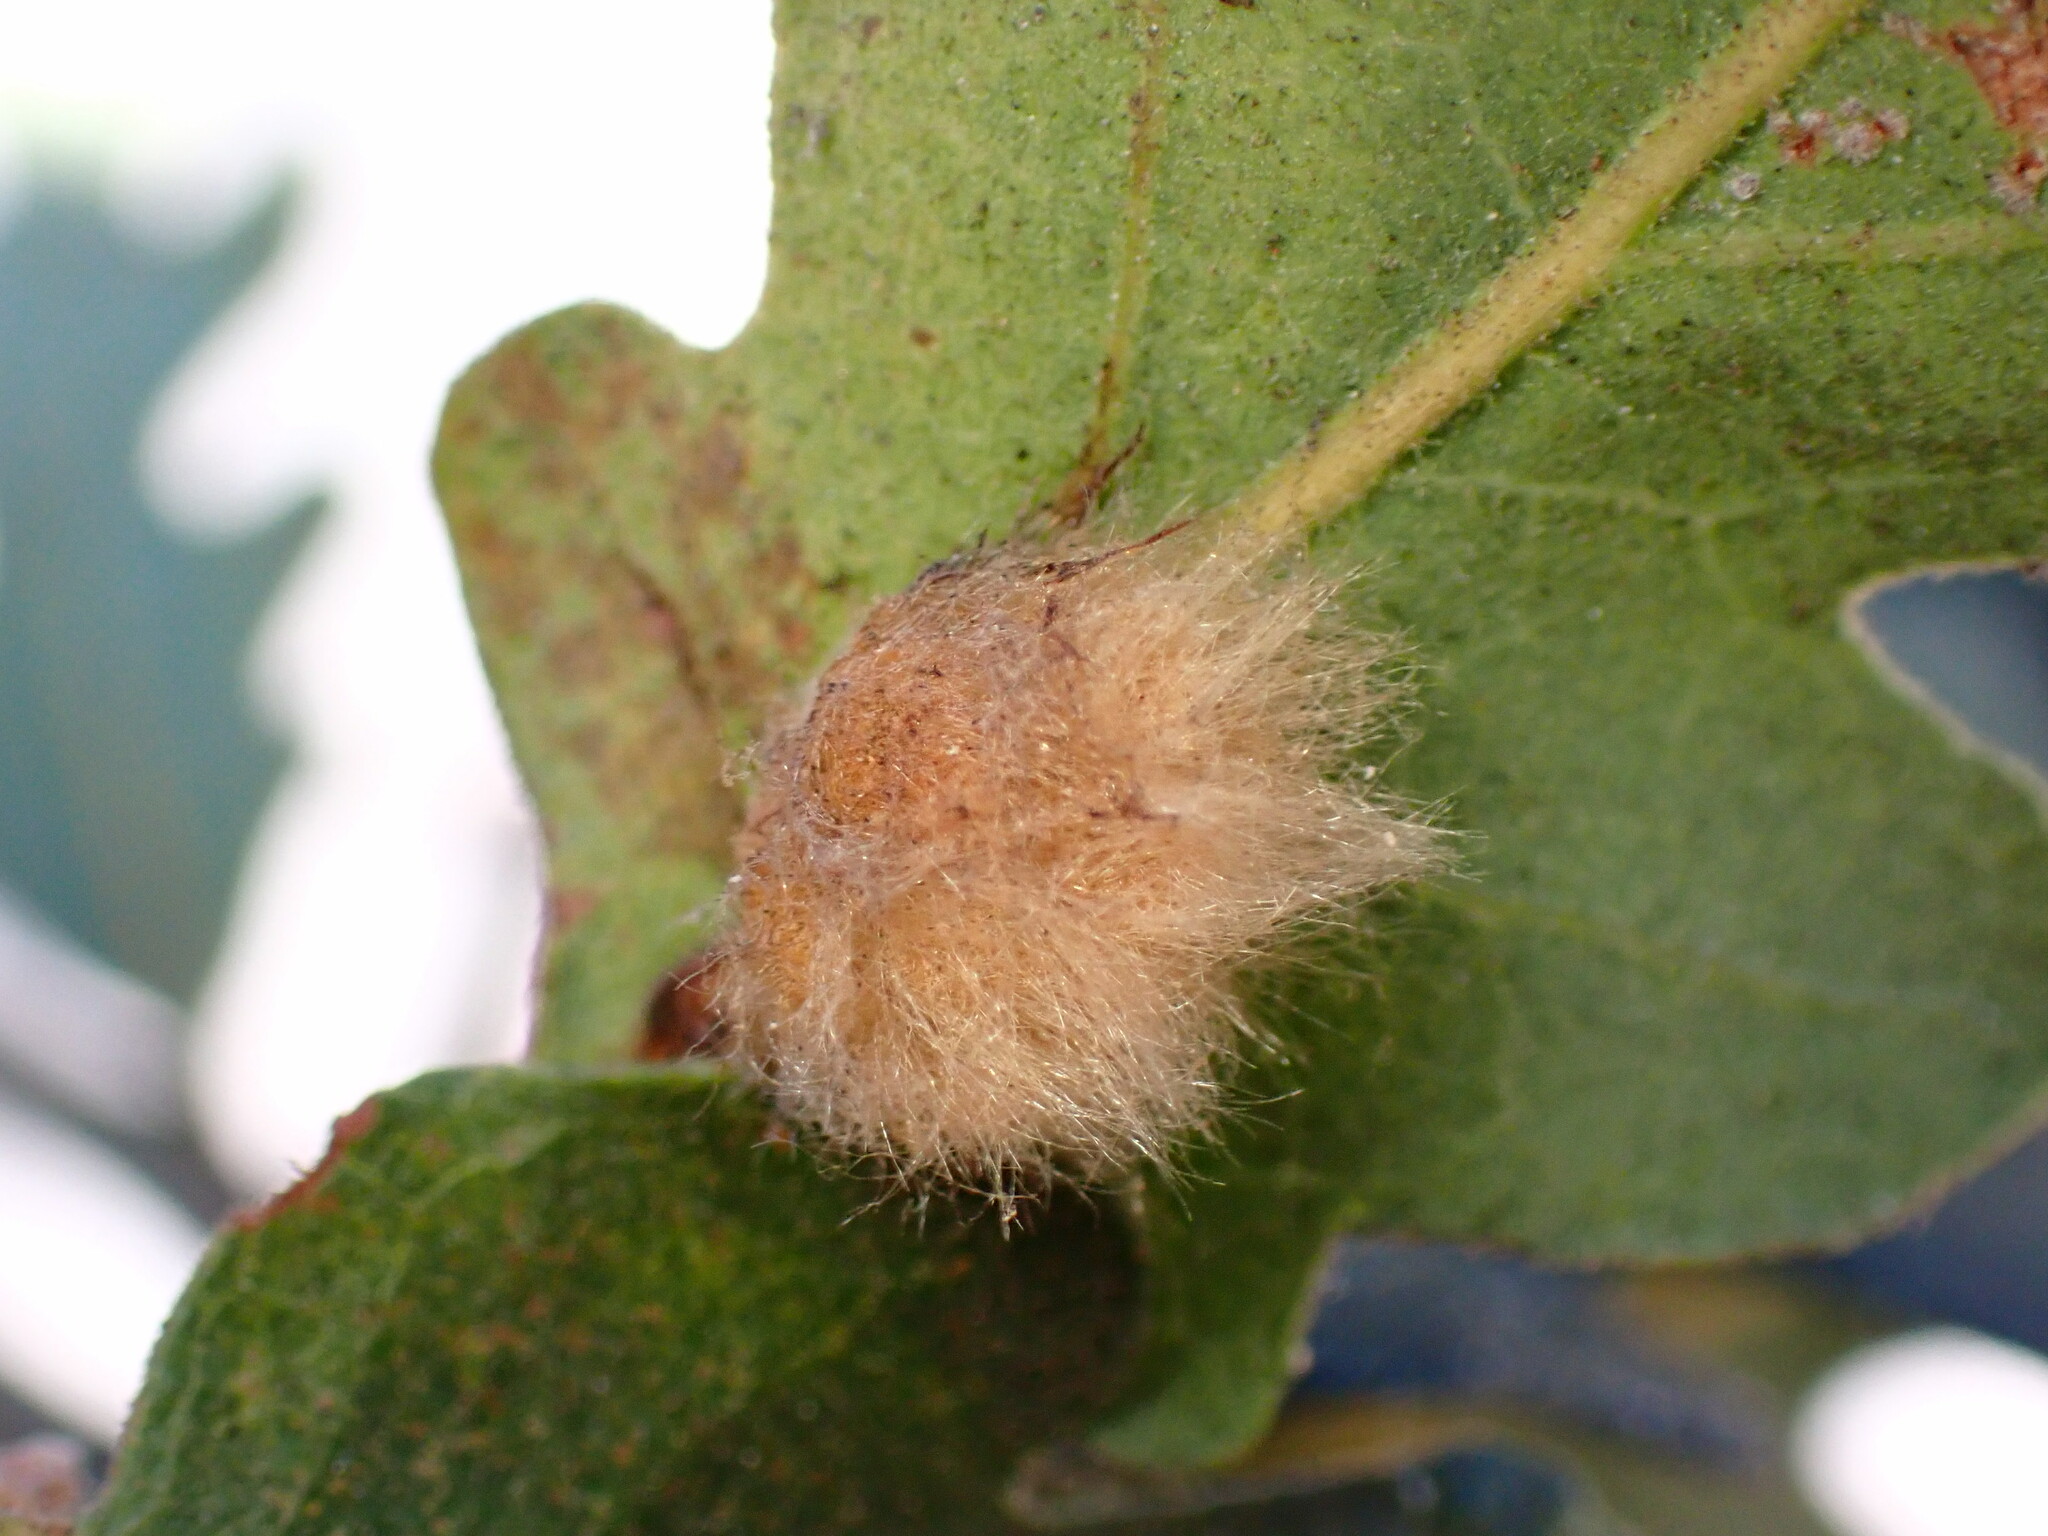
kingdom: Animalia
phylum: Arthropoda
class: Insecta
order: Hymenoptera
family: Cynipidae
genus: Andricus
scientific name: Andricus Druon fullawayi
